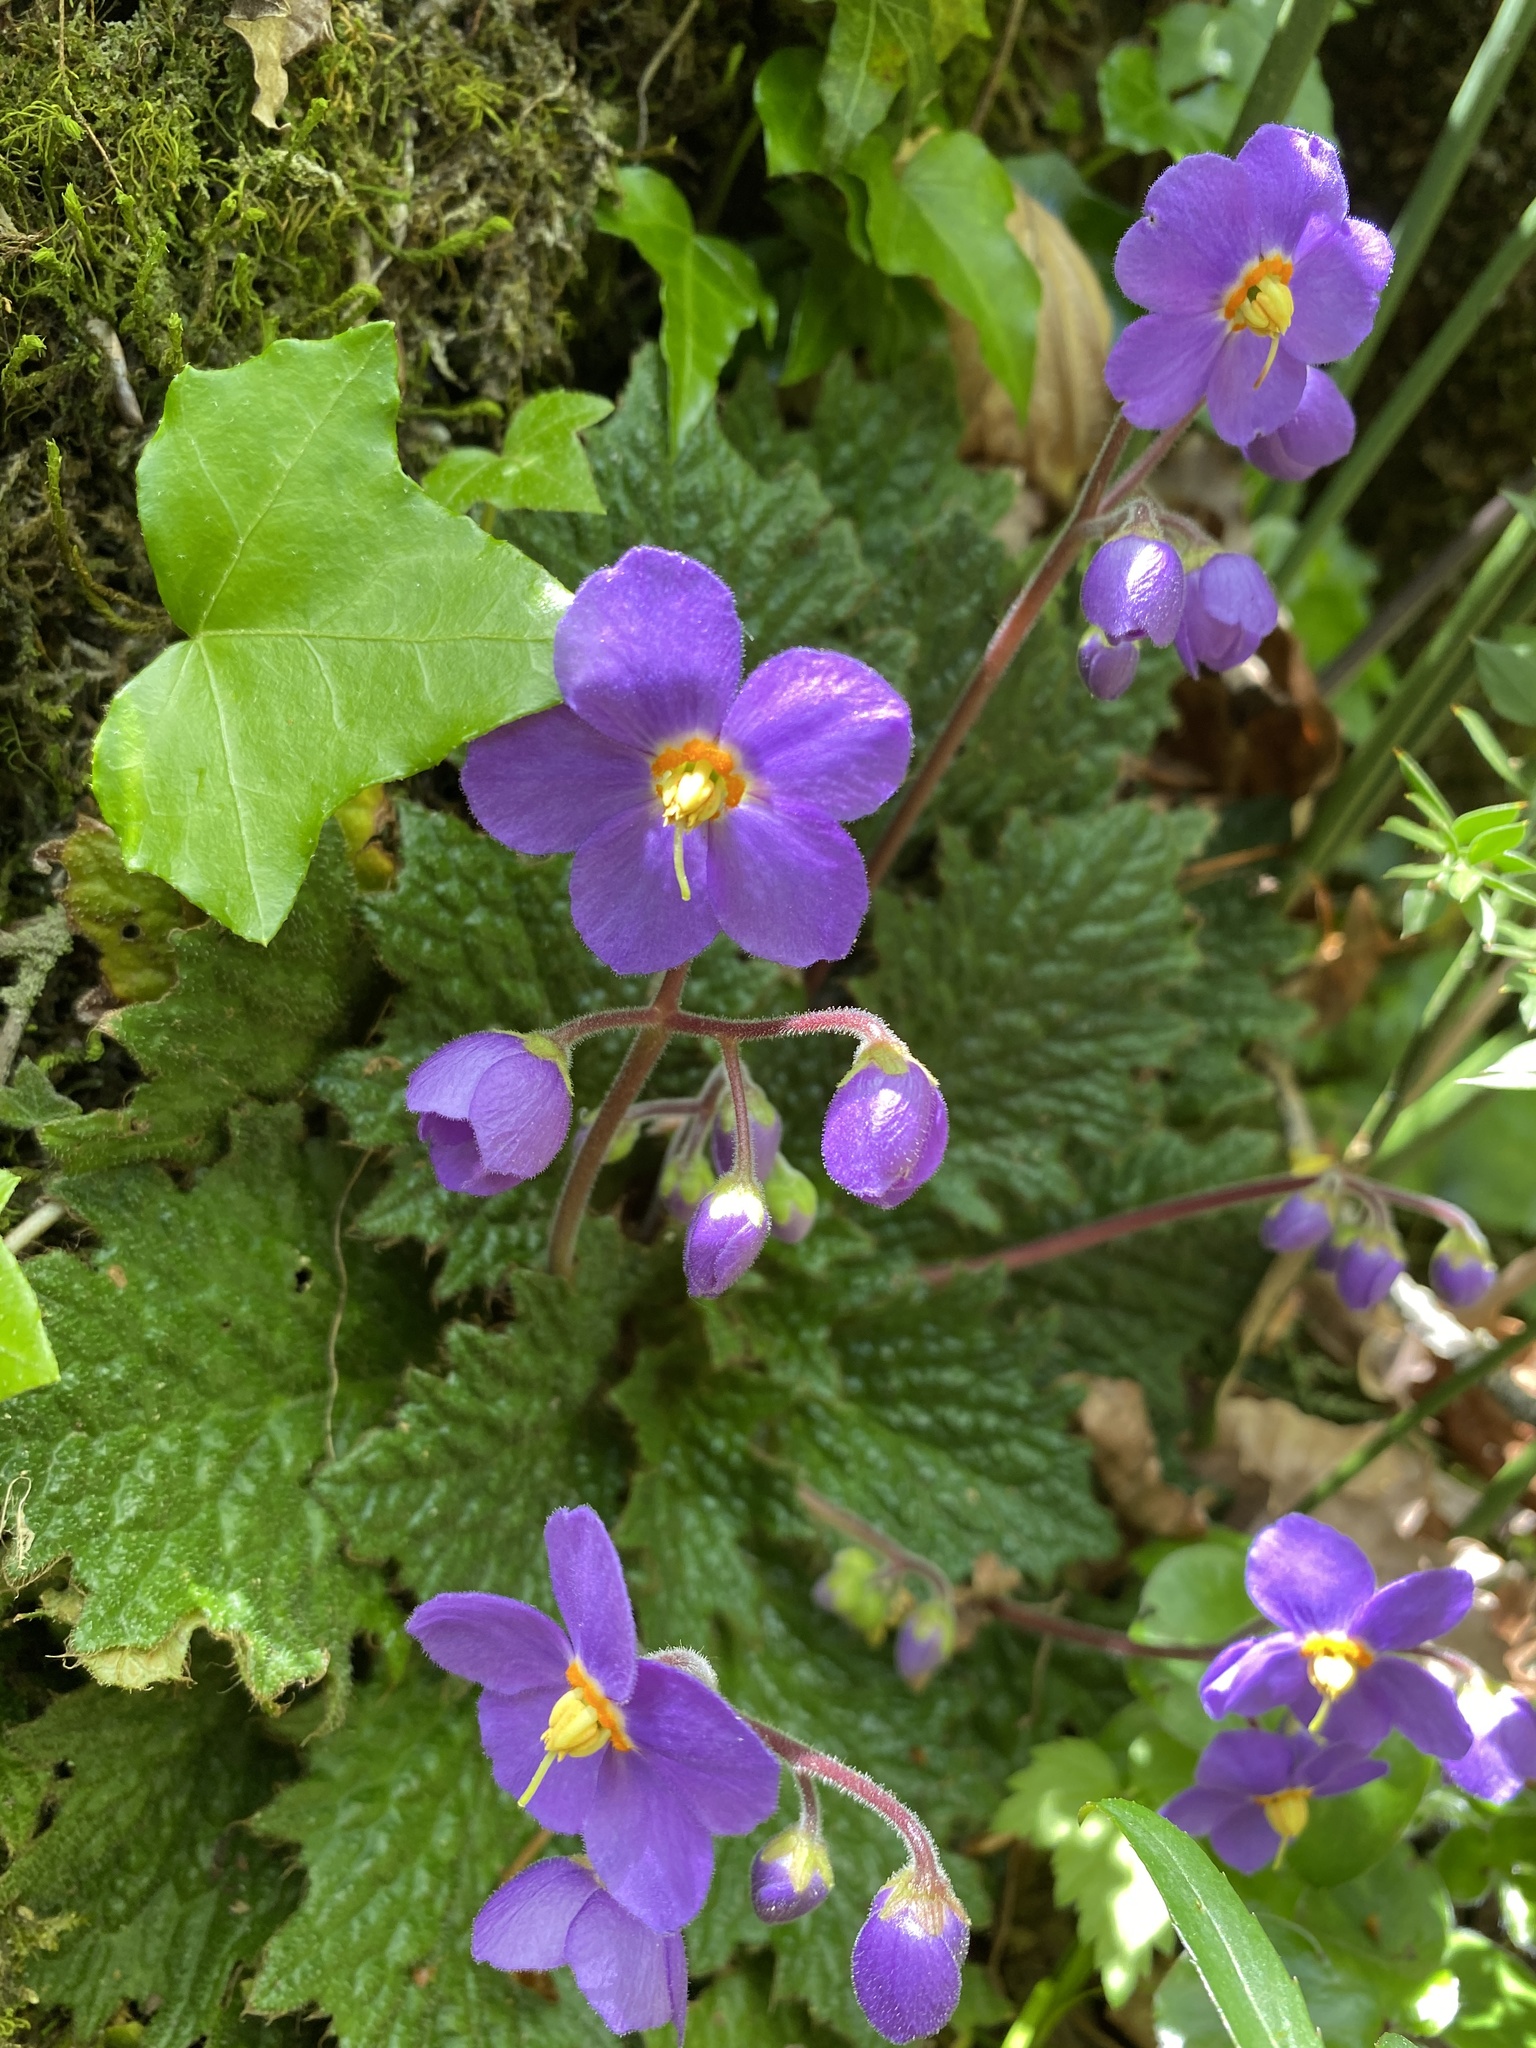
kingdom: Plantae
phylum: Tracheophyta
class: Magnoliopsida
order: Lamiales
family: Gesneriaceae
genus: Ramonda
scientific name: Ramonda myconi
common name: Pyrenean-violet
